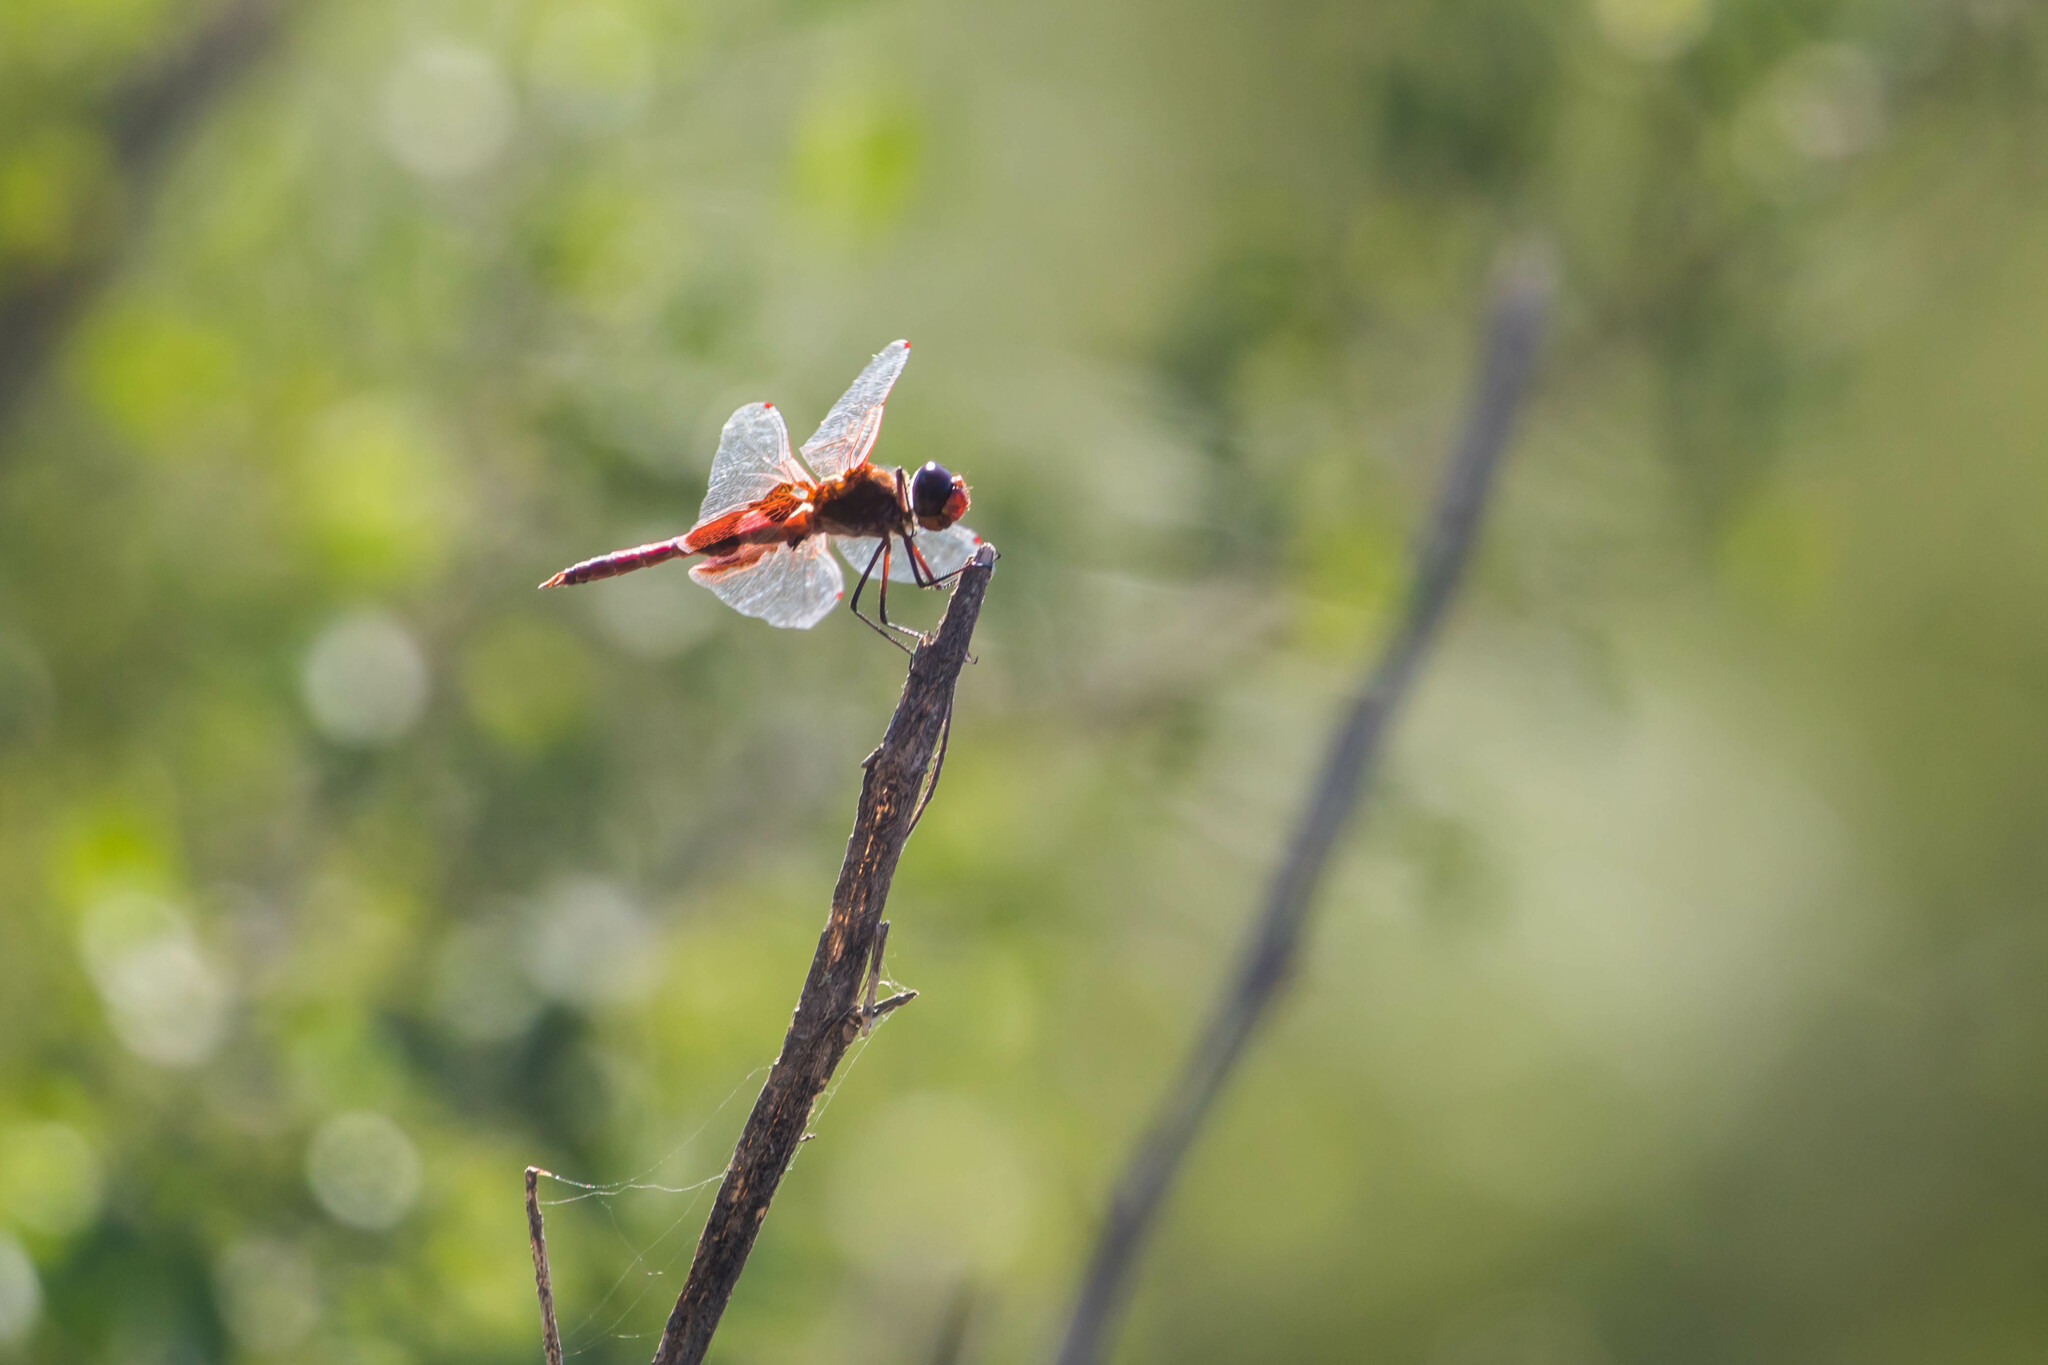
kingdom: Animalia
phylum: Arthropoda
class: Insecta
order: Odonata
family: Libellulidae
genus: Tramea
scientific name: Tramea onusta
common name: Red saddlebags
